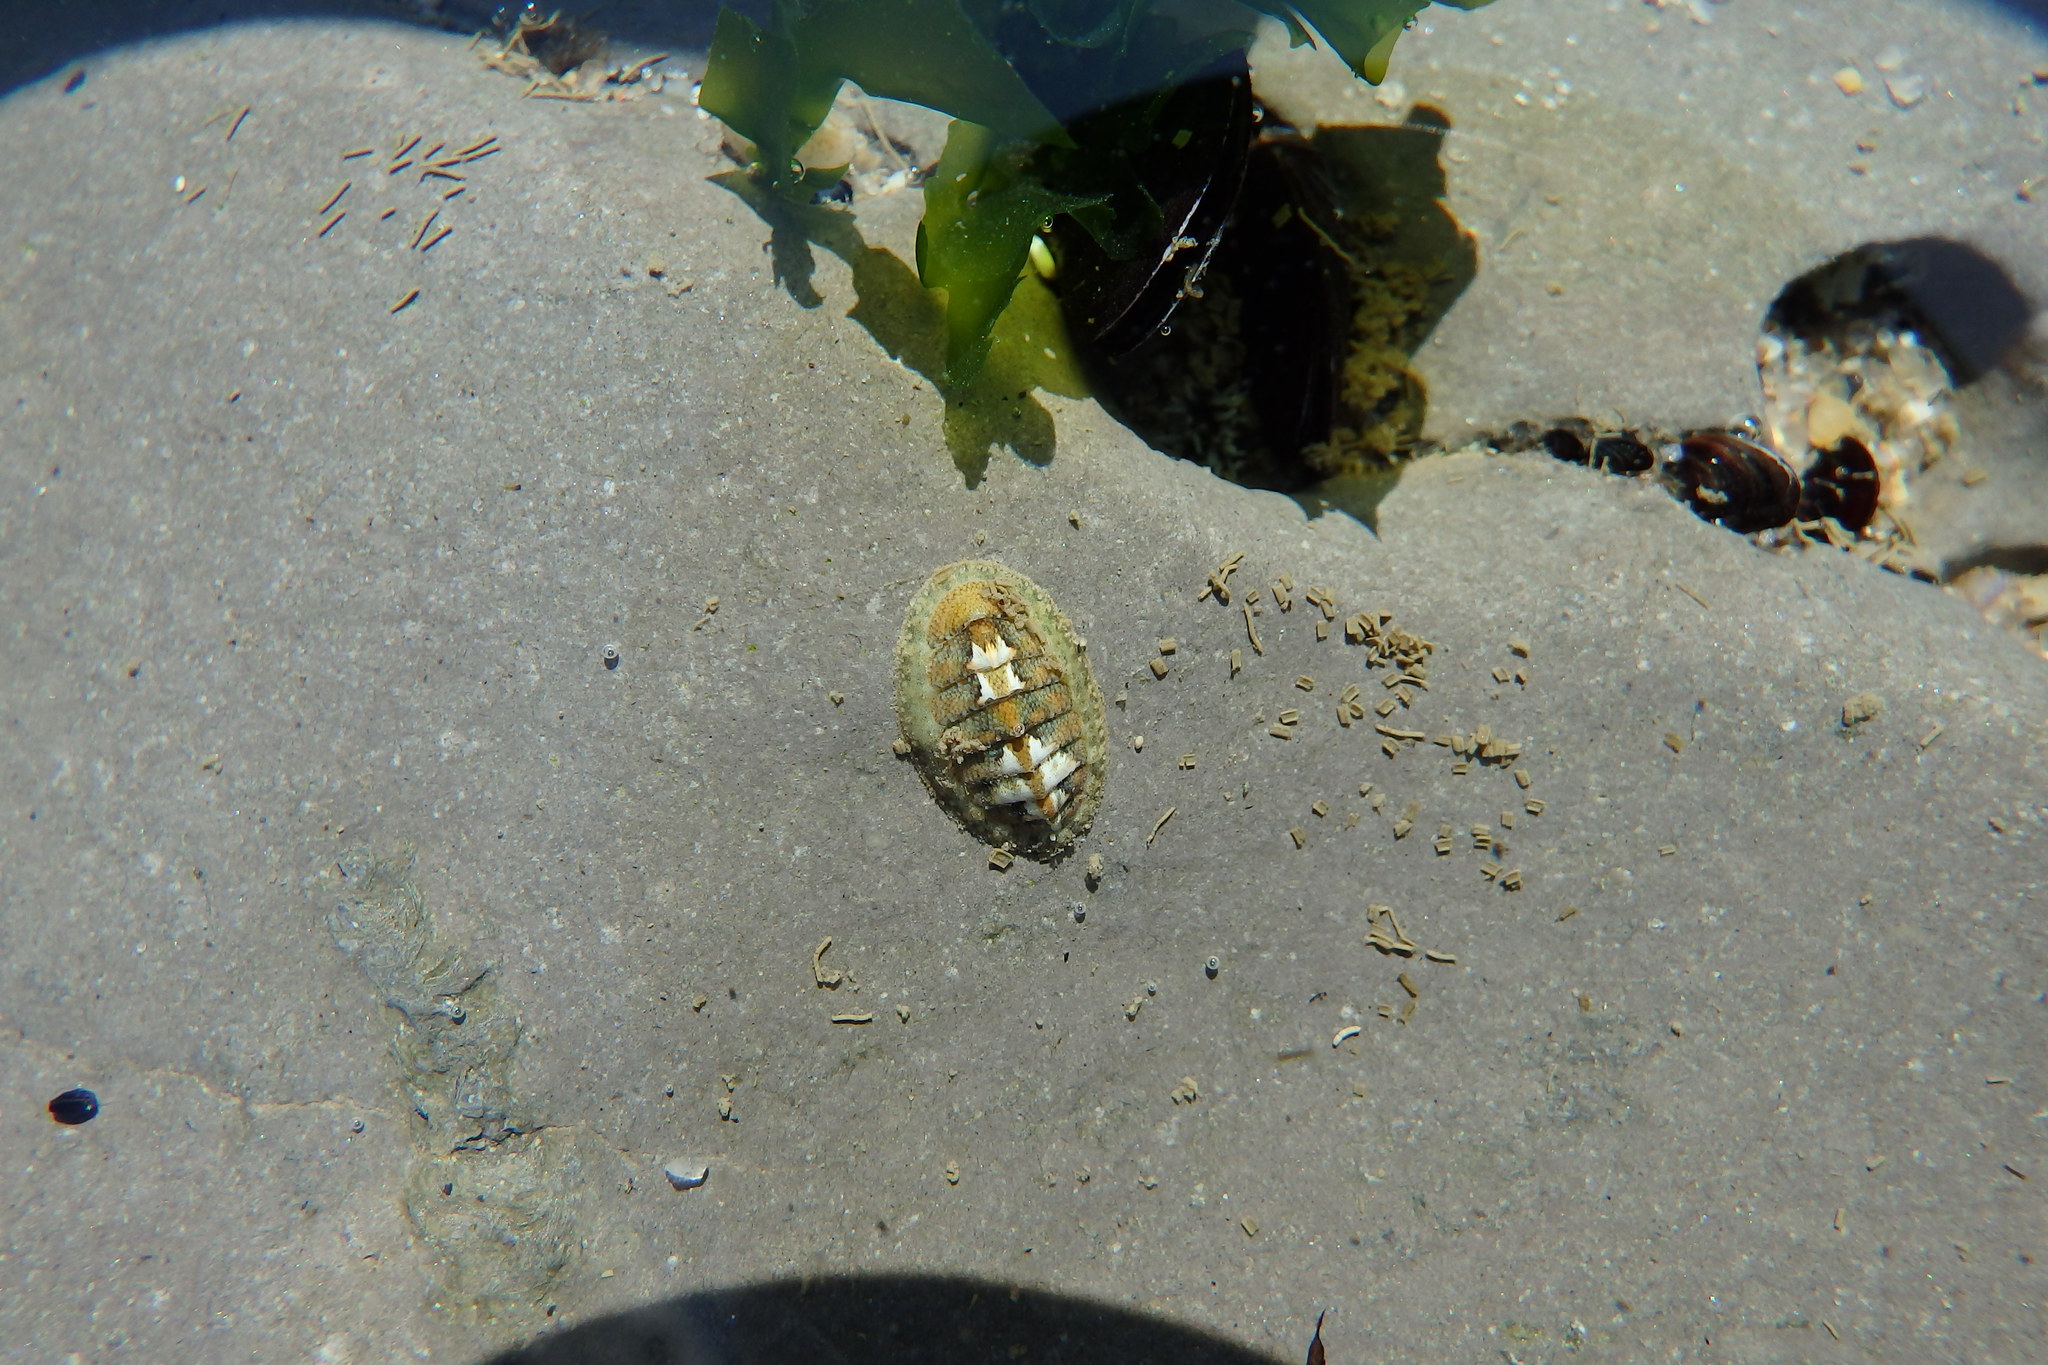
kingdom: Animalia
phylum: Mollusca
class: Polyplacophora
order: Chitonida
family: Tonicellidae
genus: Lepidochitona
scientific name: Lepidochitona cinerea
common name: Cinereous chiton
